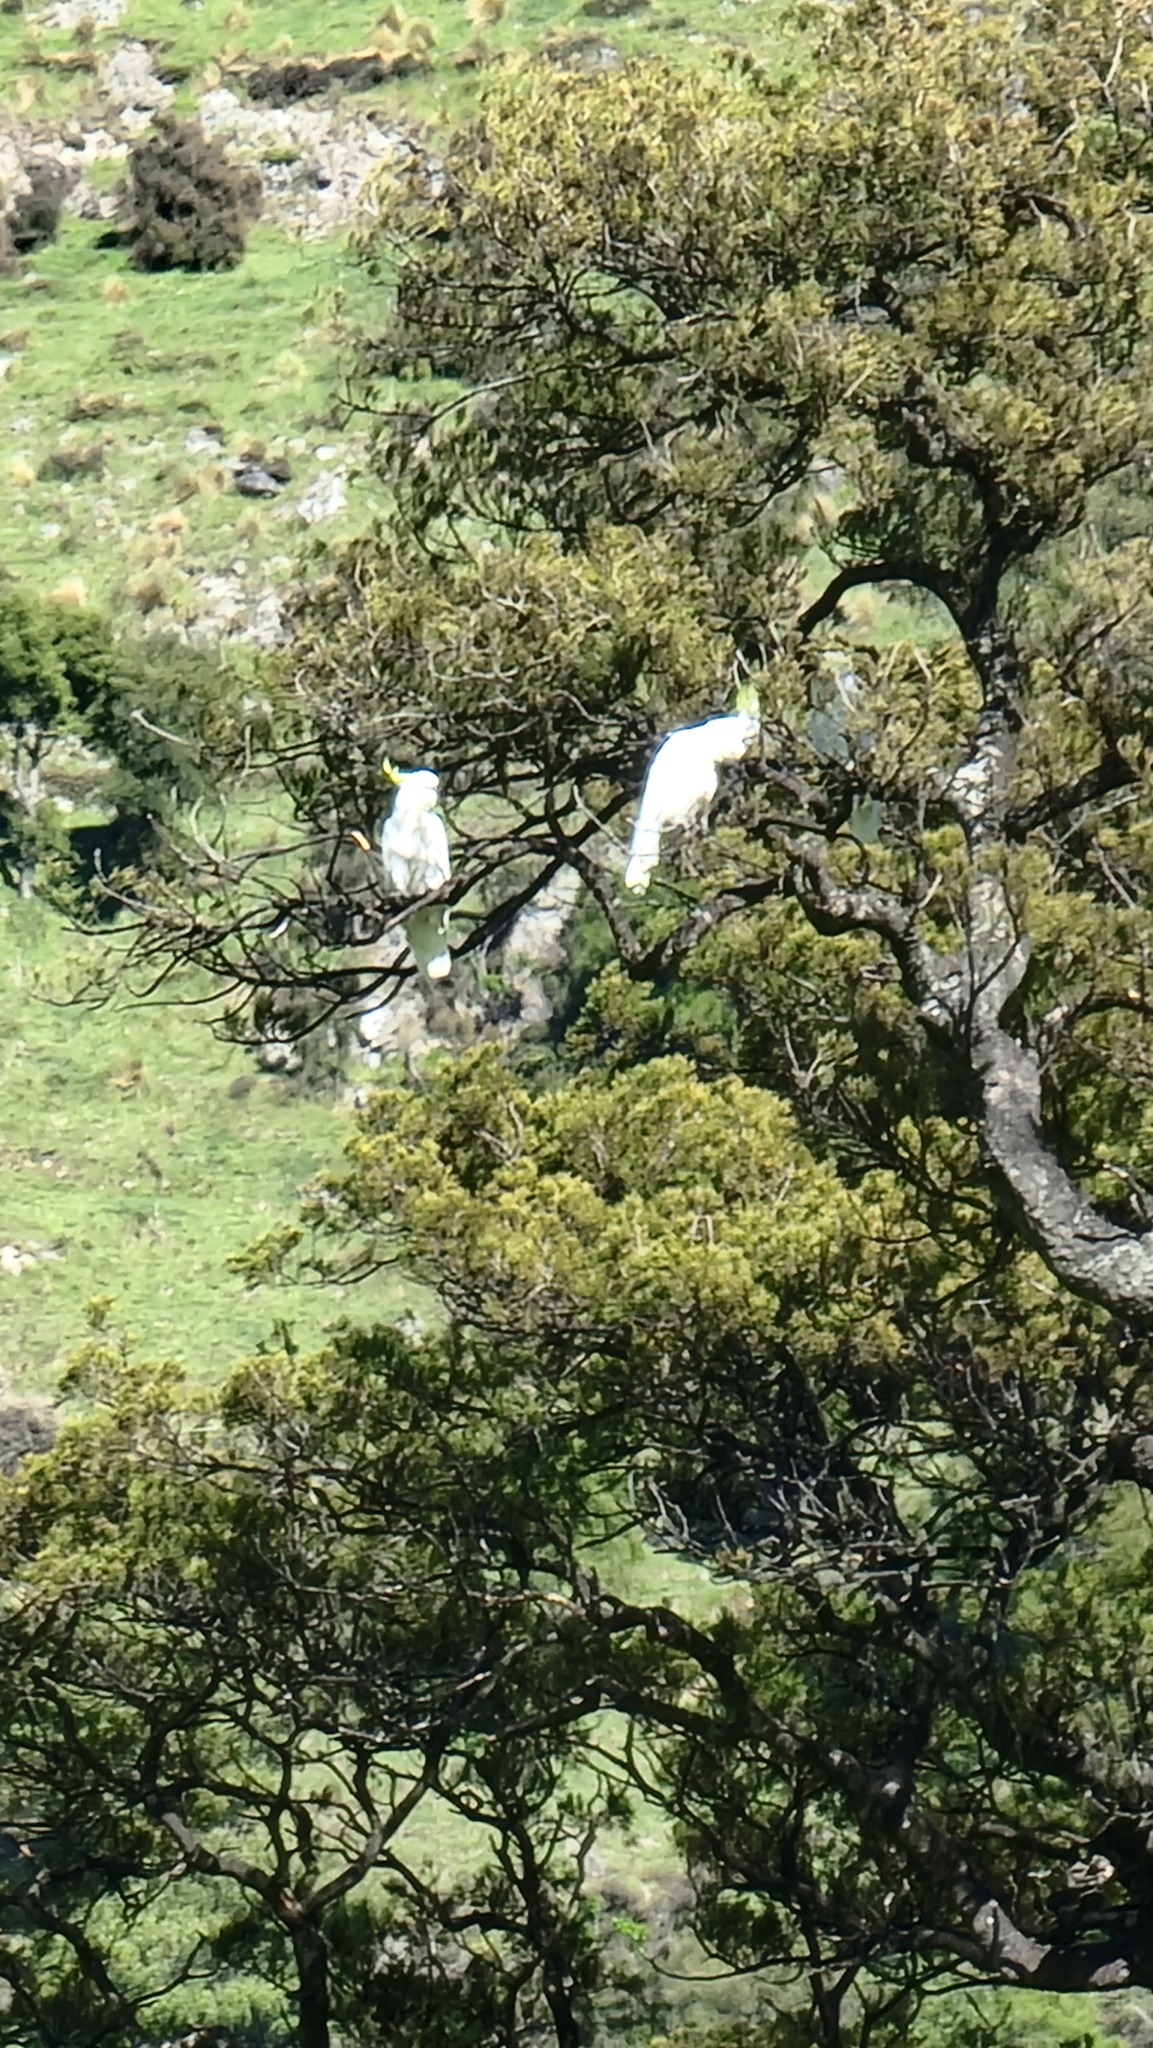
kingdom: Animalia
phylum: Chordata
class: Aves
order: Psittaciformes
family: Psittacidae
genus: Cacatua
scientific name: Cacatua galerita
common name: Sulphur-crested cockatoo
